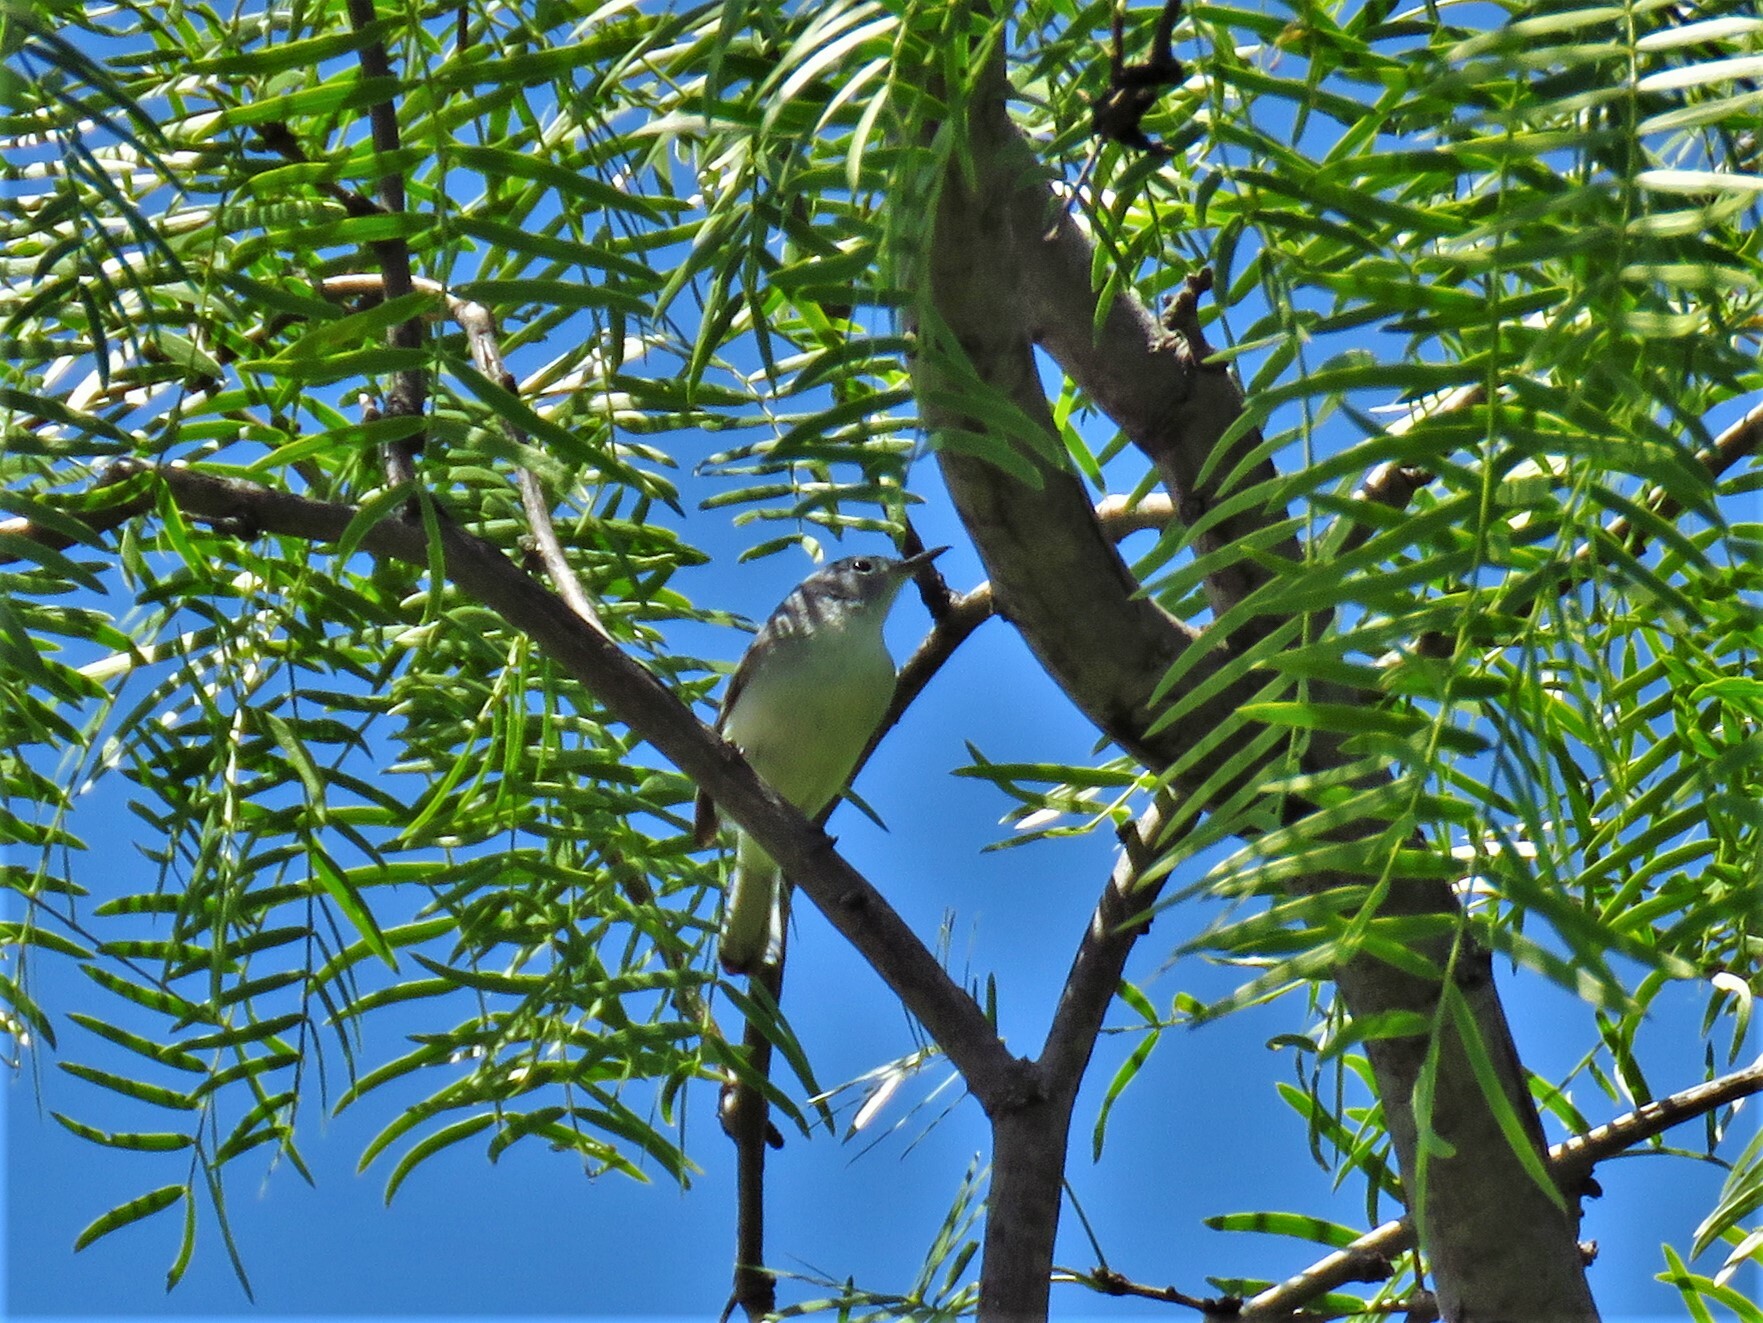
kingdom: Animalia
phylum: Chordata
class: Aves
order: Passeriformes
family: Polioptilidae
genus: Polioptila
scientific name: Polioptila caerulea
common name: Blue-gray gnatcatcher
